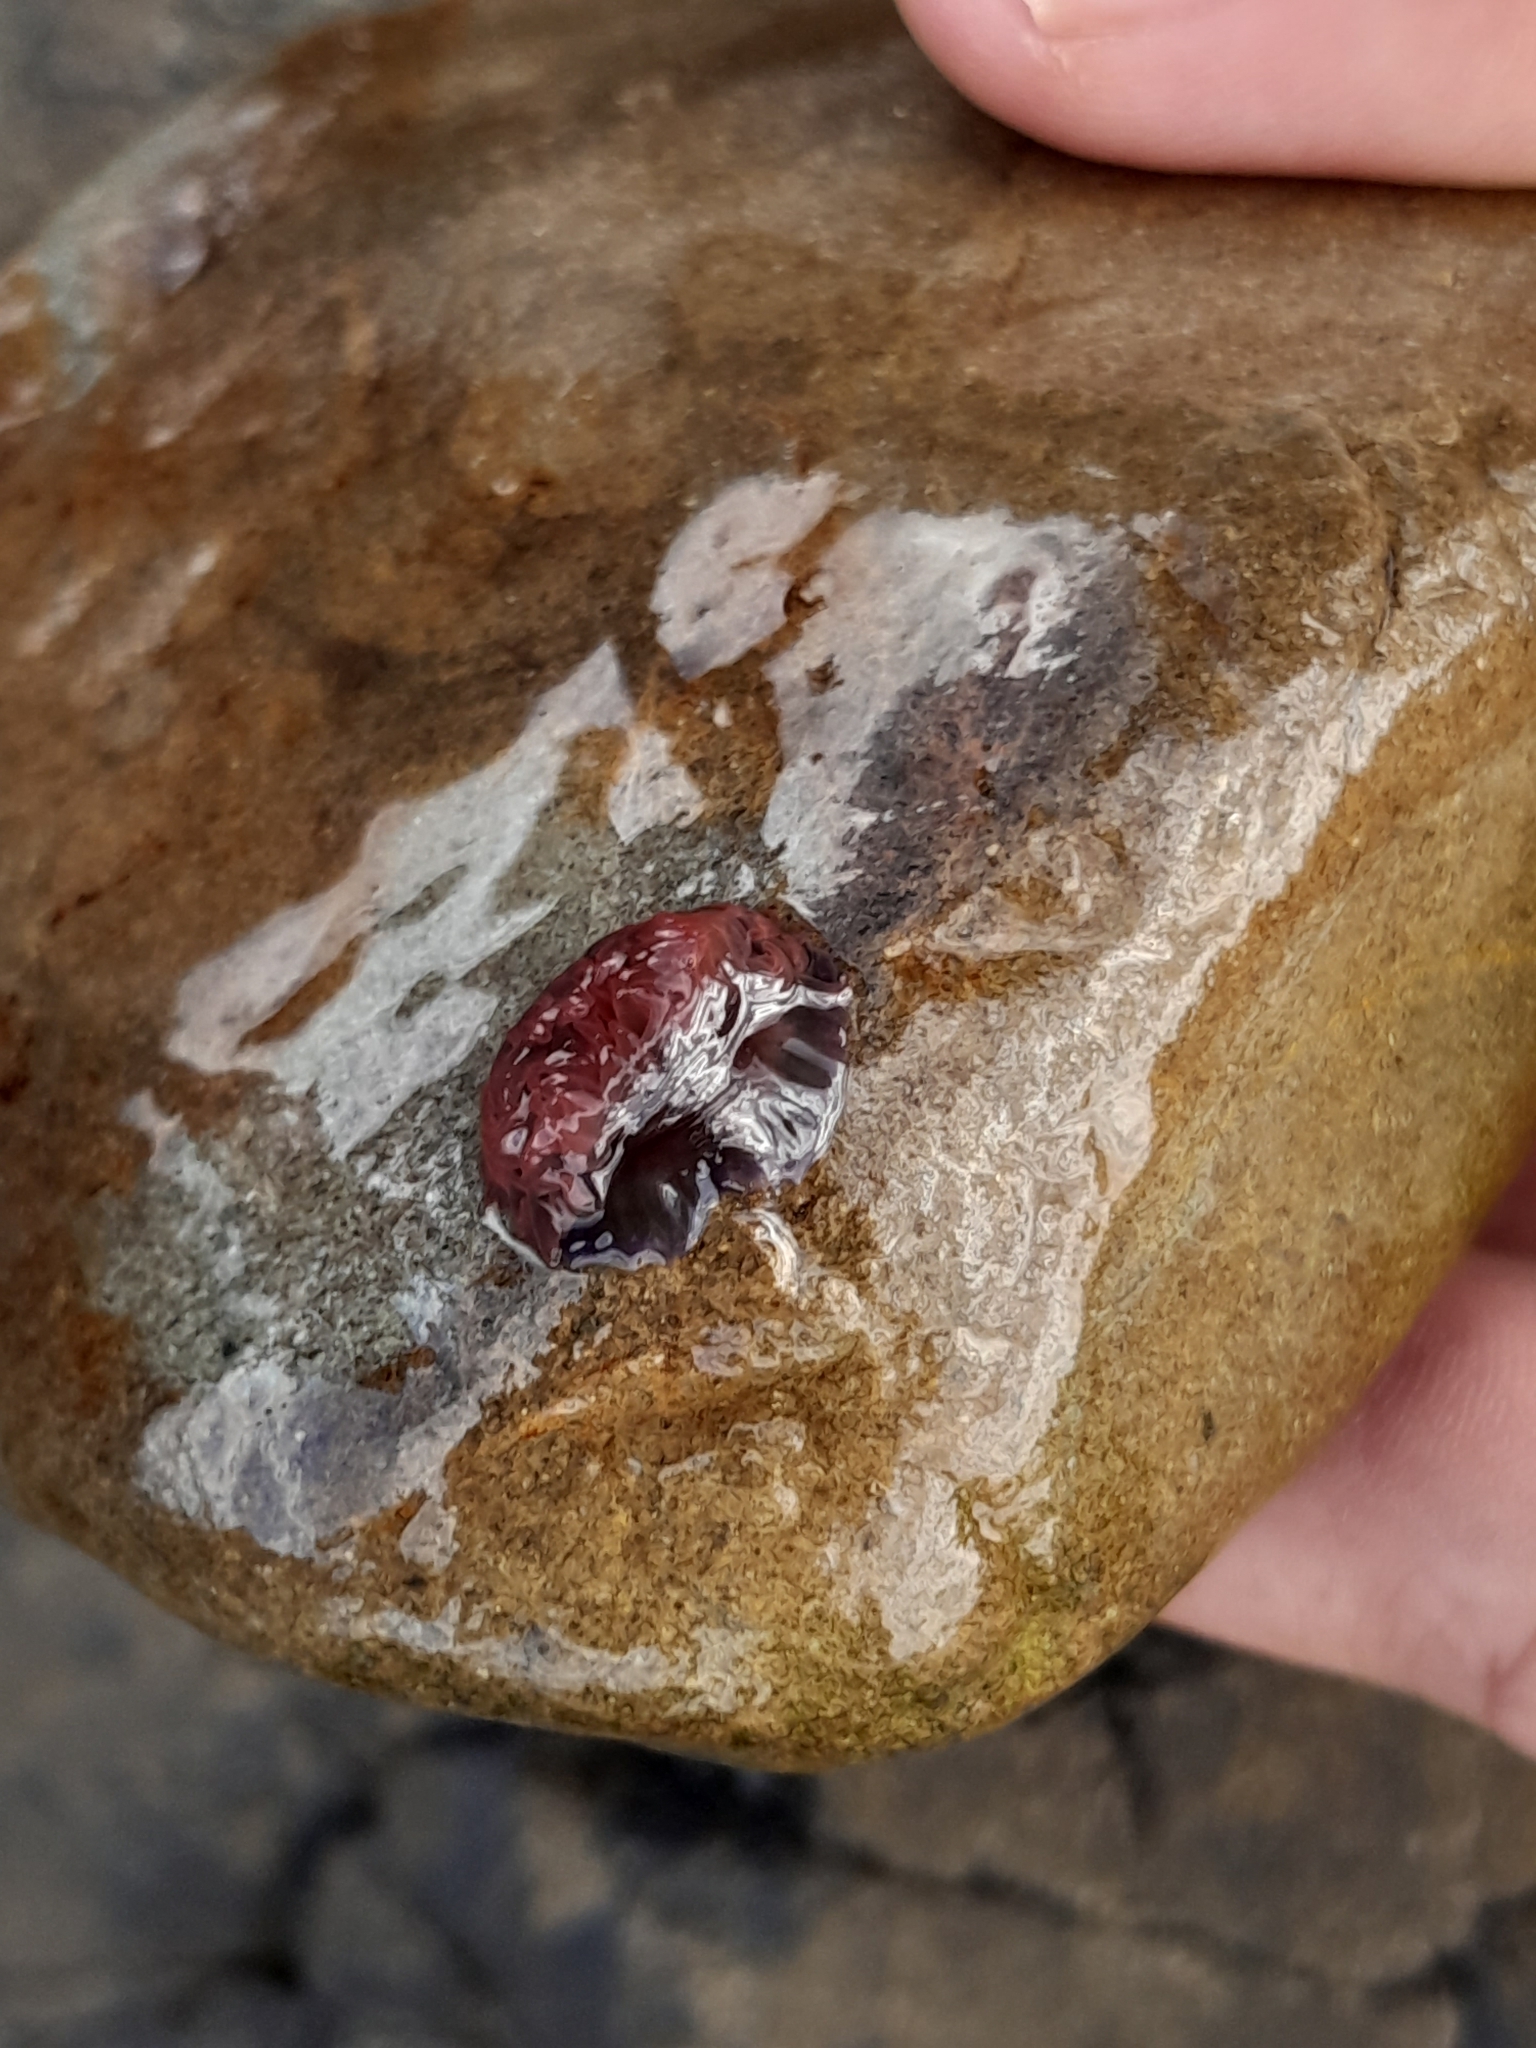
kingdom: Animalia
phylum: Cnidaria
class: Anthozoa
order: Actiniaria
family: Actiniidae
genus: Actinia
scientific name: Actinia tenebrosa
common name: Waratah anemone
